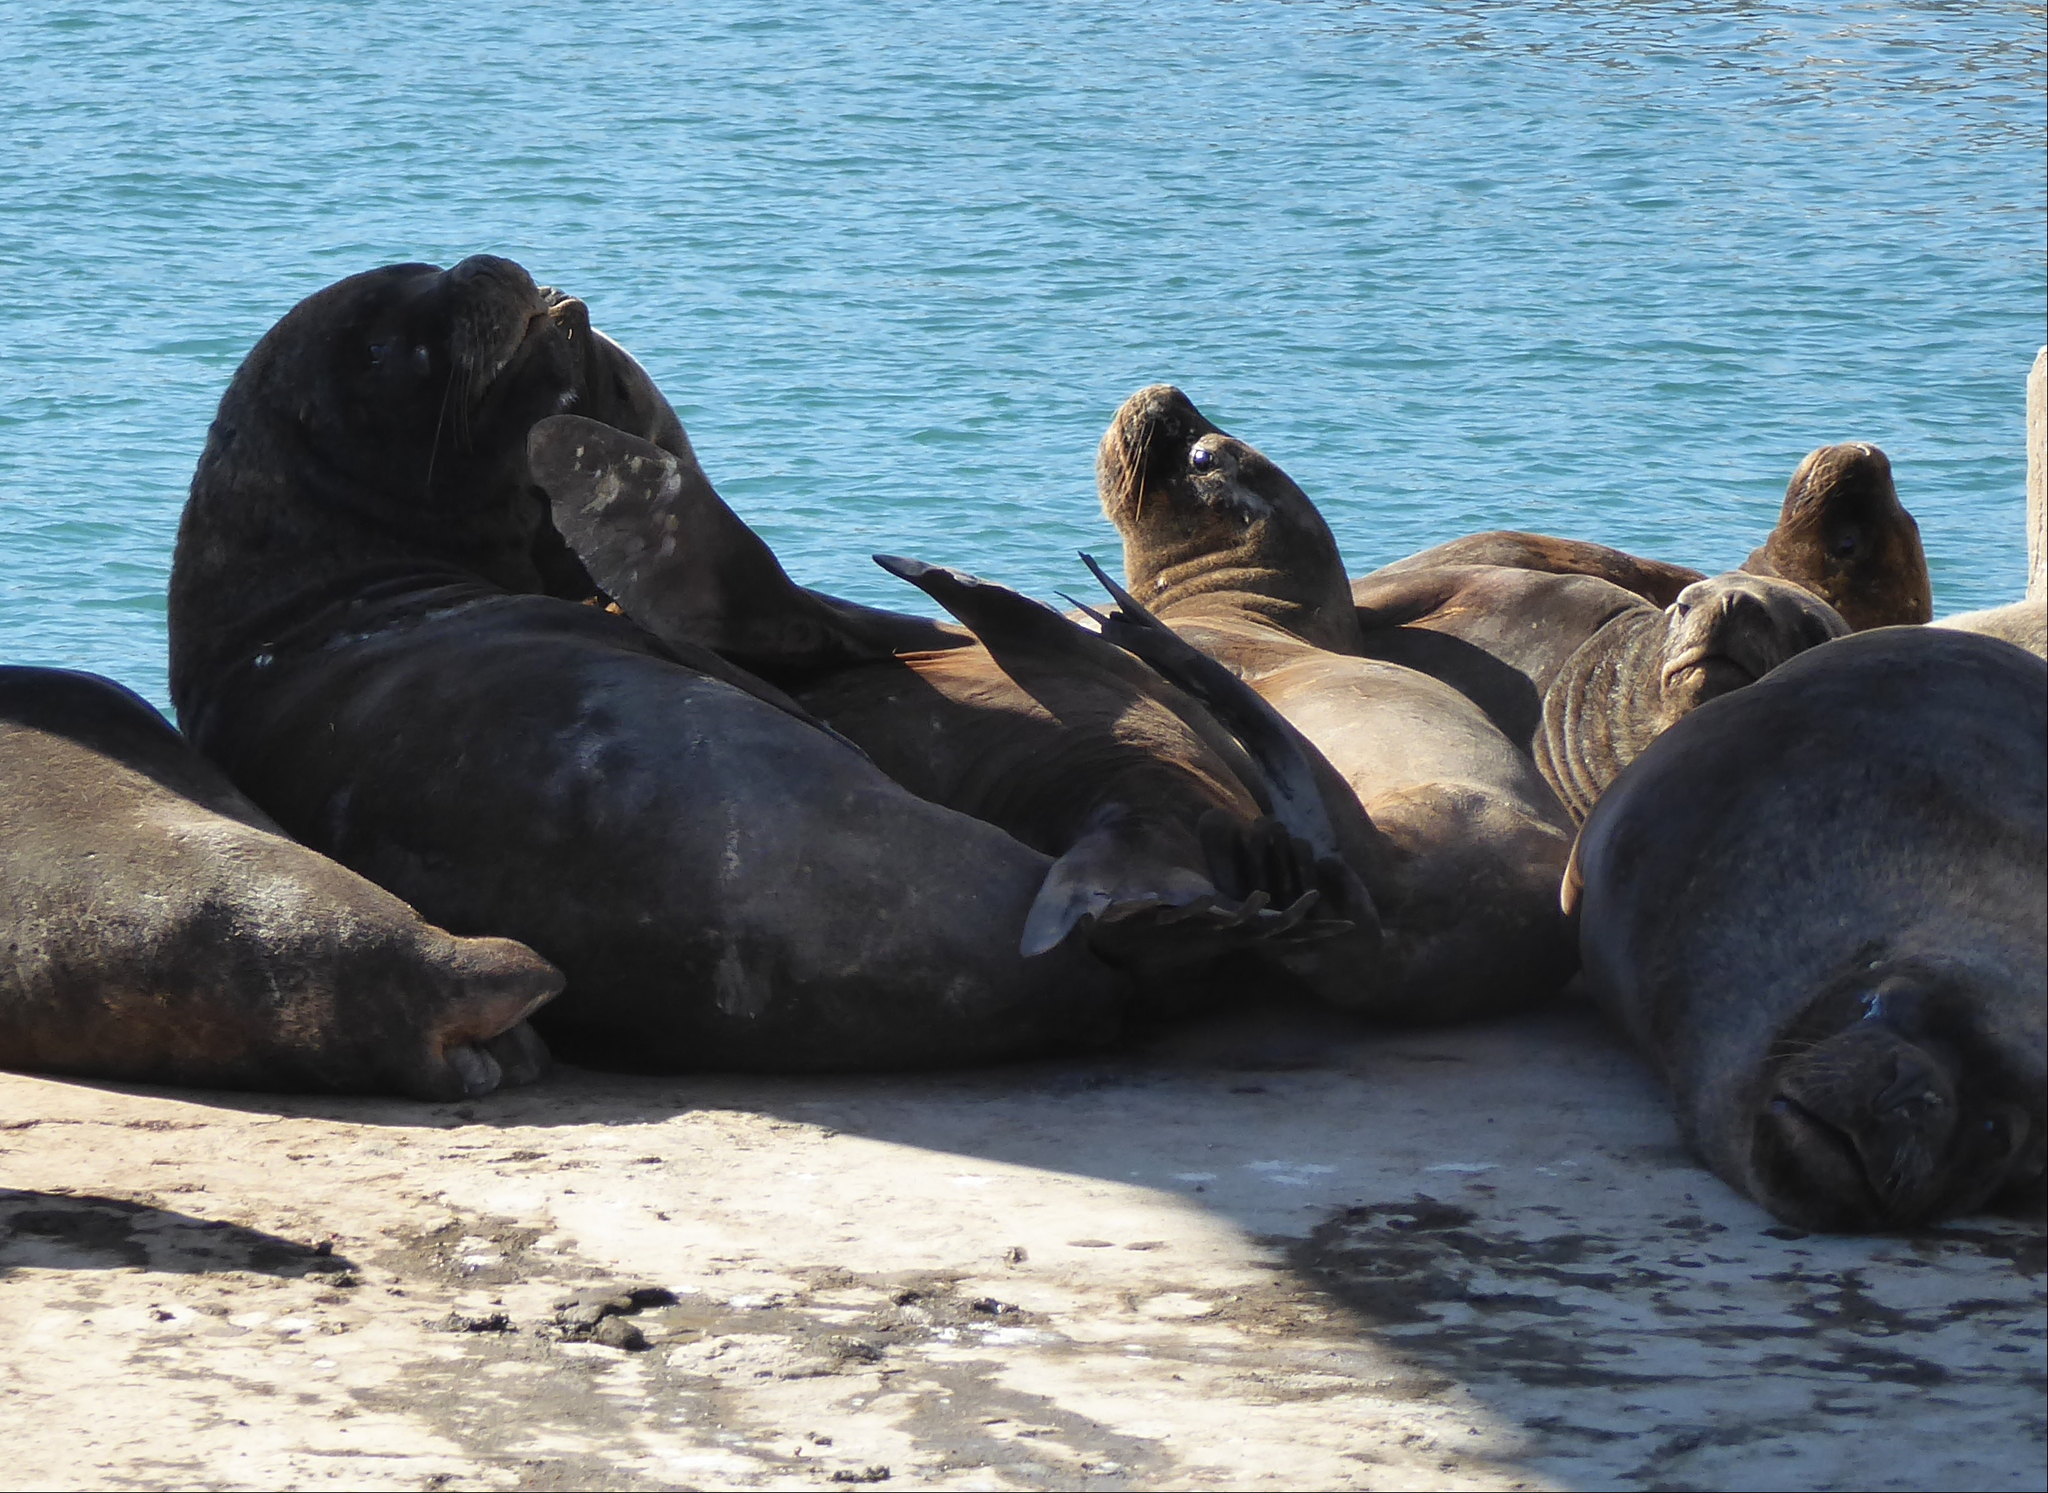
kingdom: Animalia
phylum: Chordata
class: Mammalia
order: Carnivora
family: Otariidae
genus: Otaria
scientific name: Otaria byronia
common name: South american sea lion
